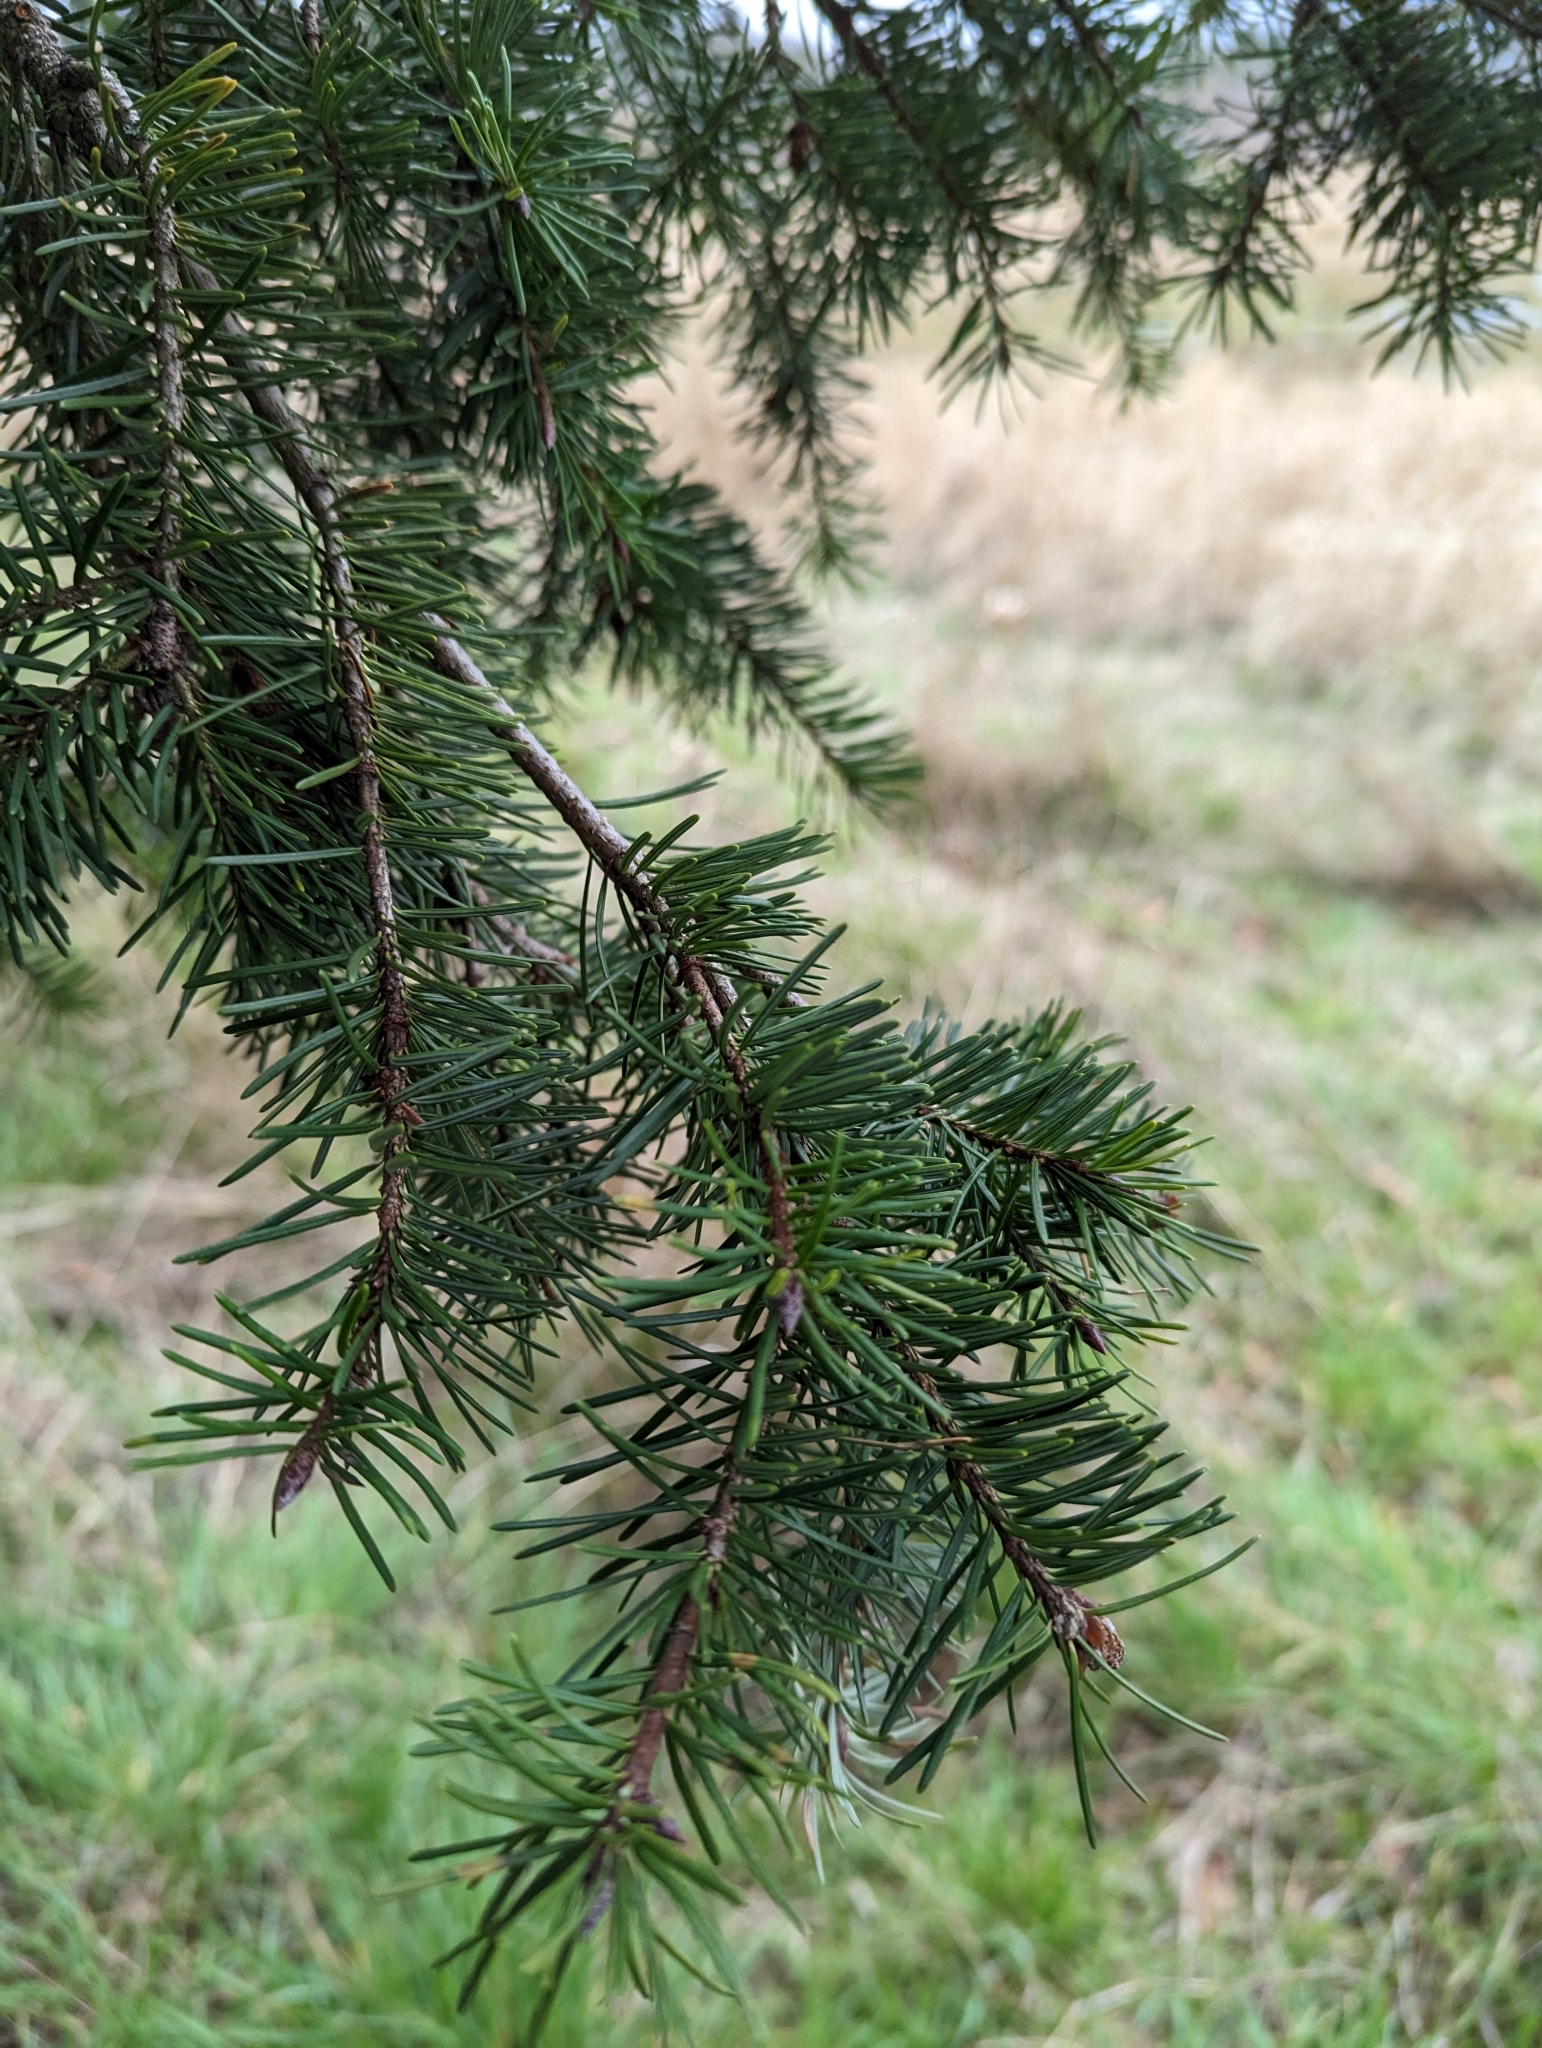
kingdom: Plantae
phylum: Tracheophyta
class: Pinopsida
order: Pinales
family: Pinaceae
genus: Pseudotsuga
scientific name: Pseudotsuga menziesii
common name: Douglas fir
